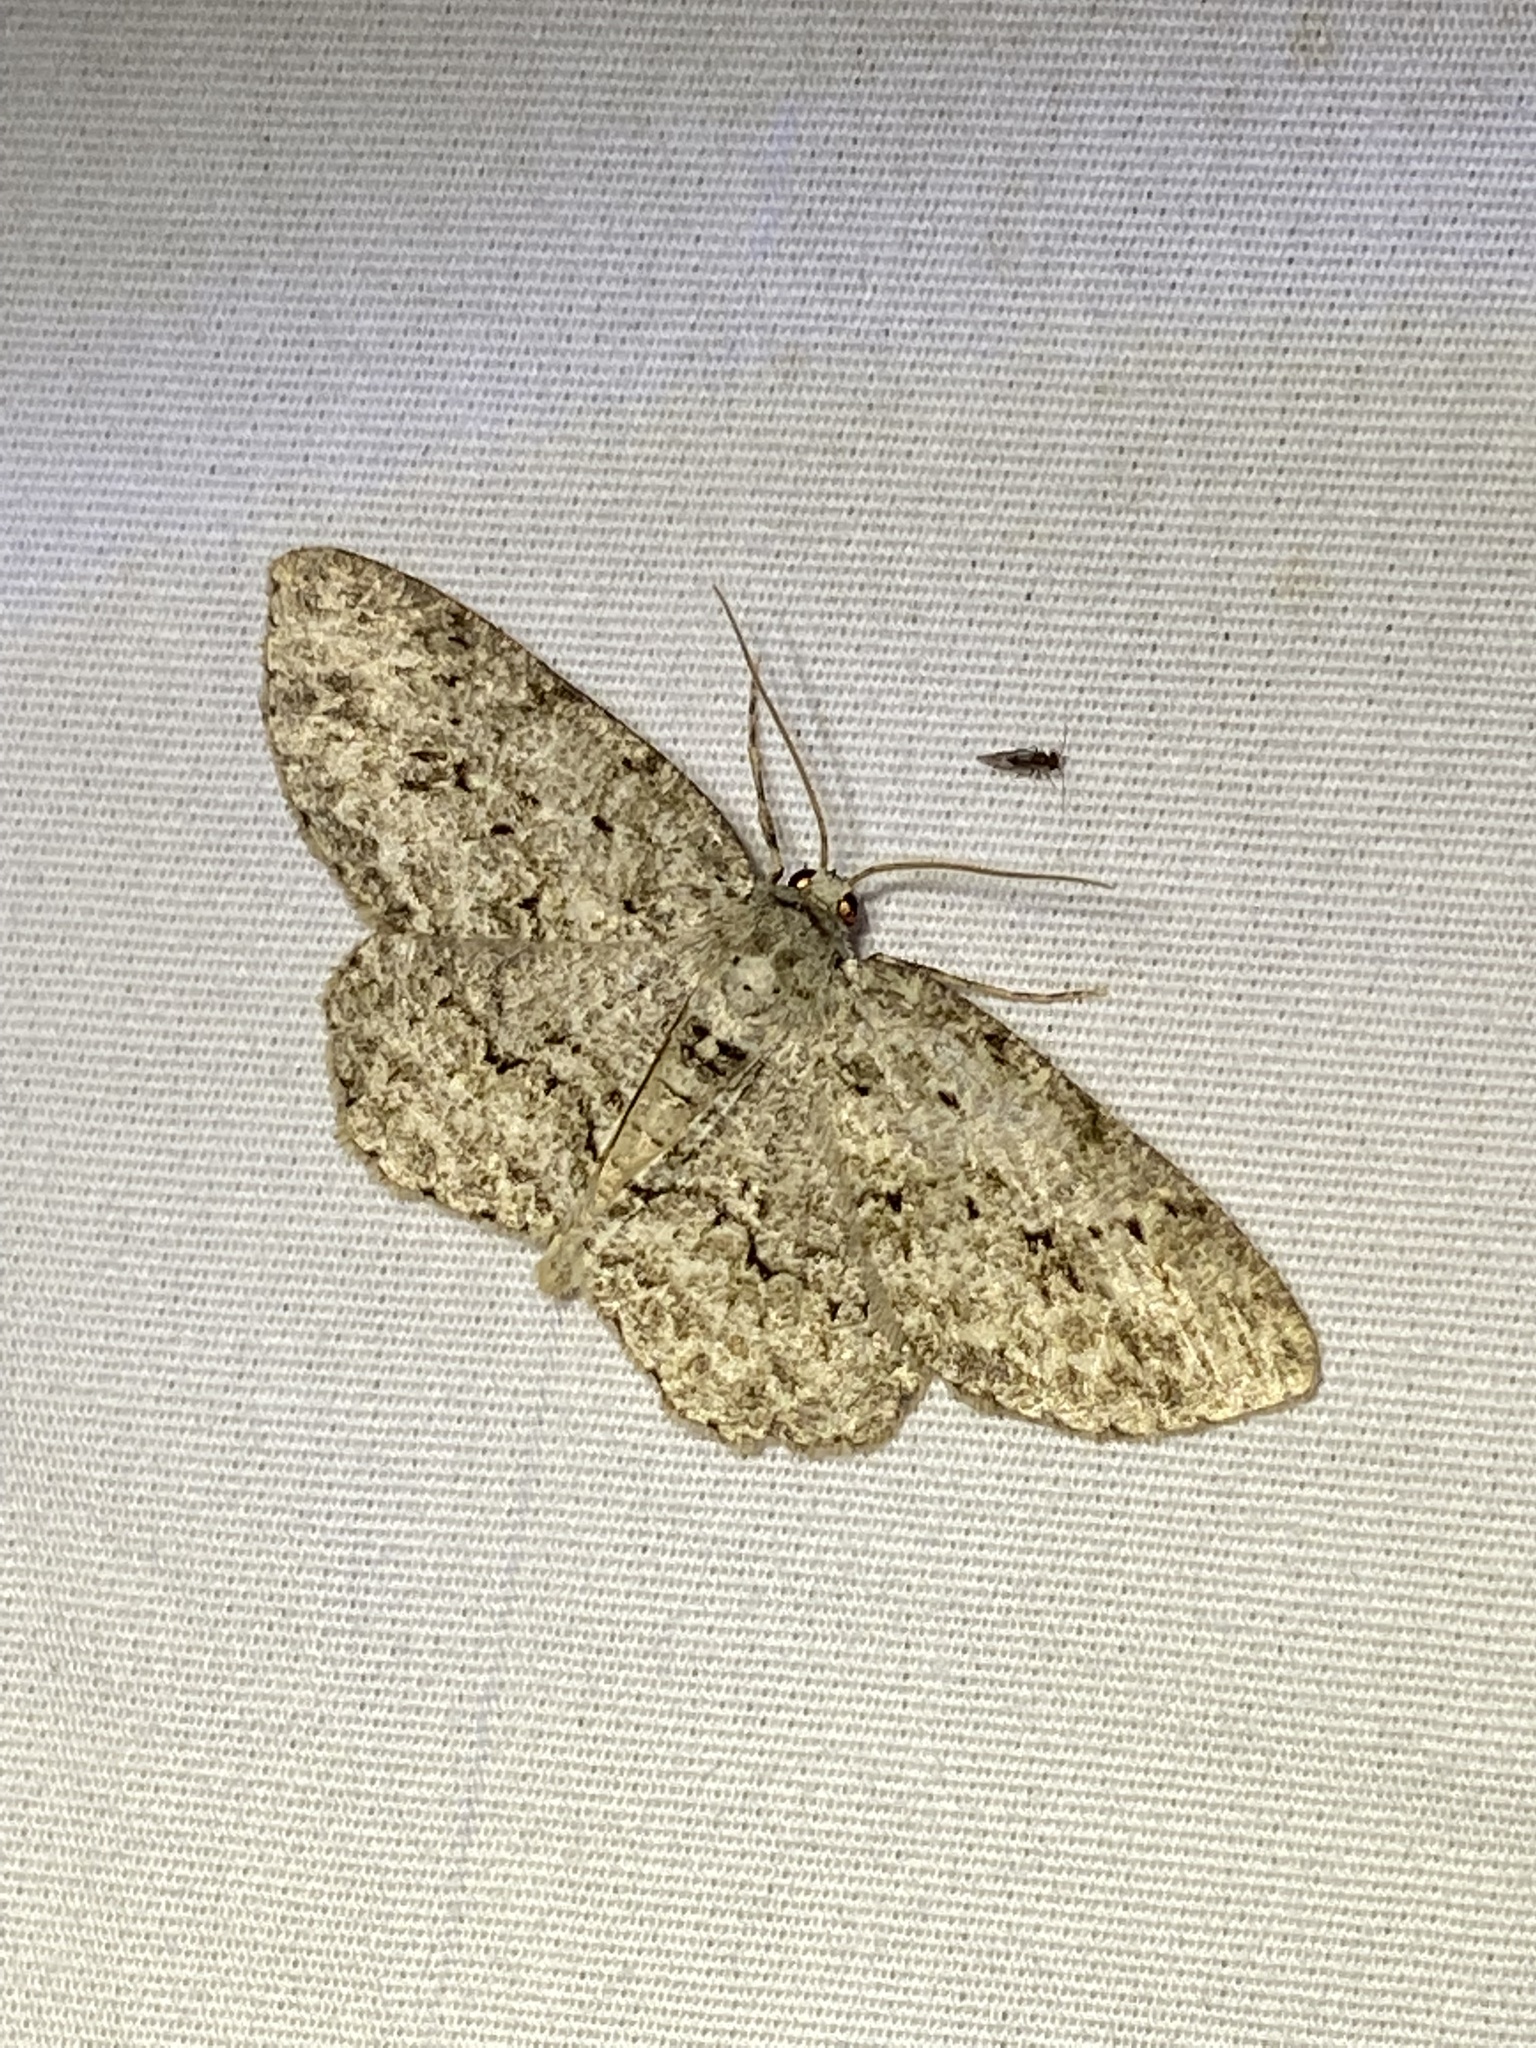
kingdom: Animalia
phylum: Arthropoda
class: Insecta
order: Lepidoptera
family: Geometridae
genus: Ectropis
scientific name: Ectropis crepuscularia
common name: Engrailed
